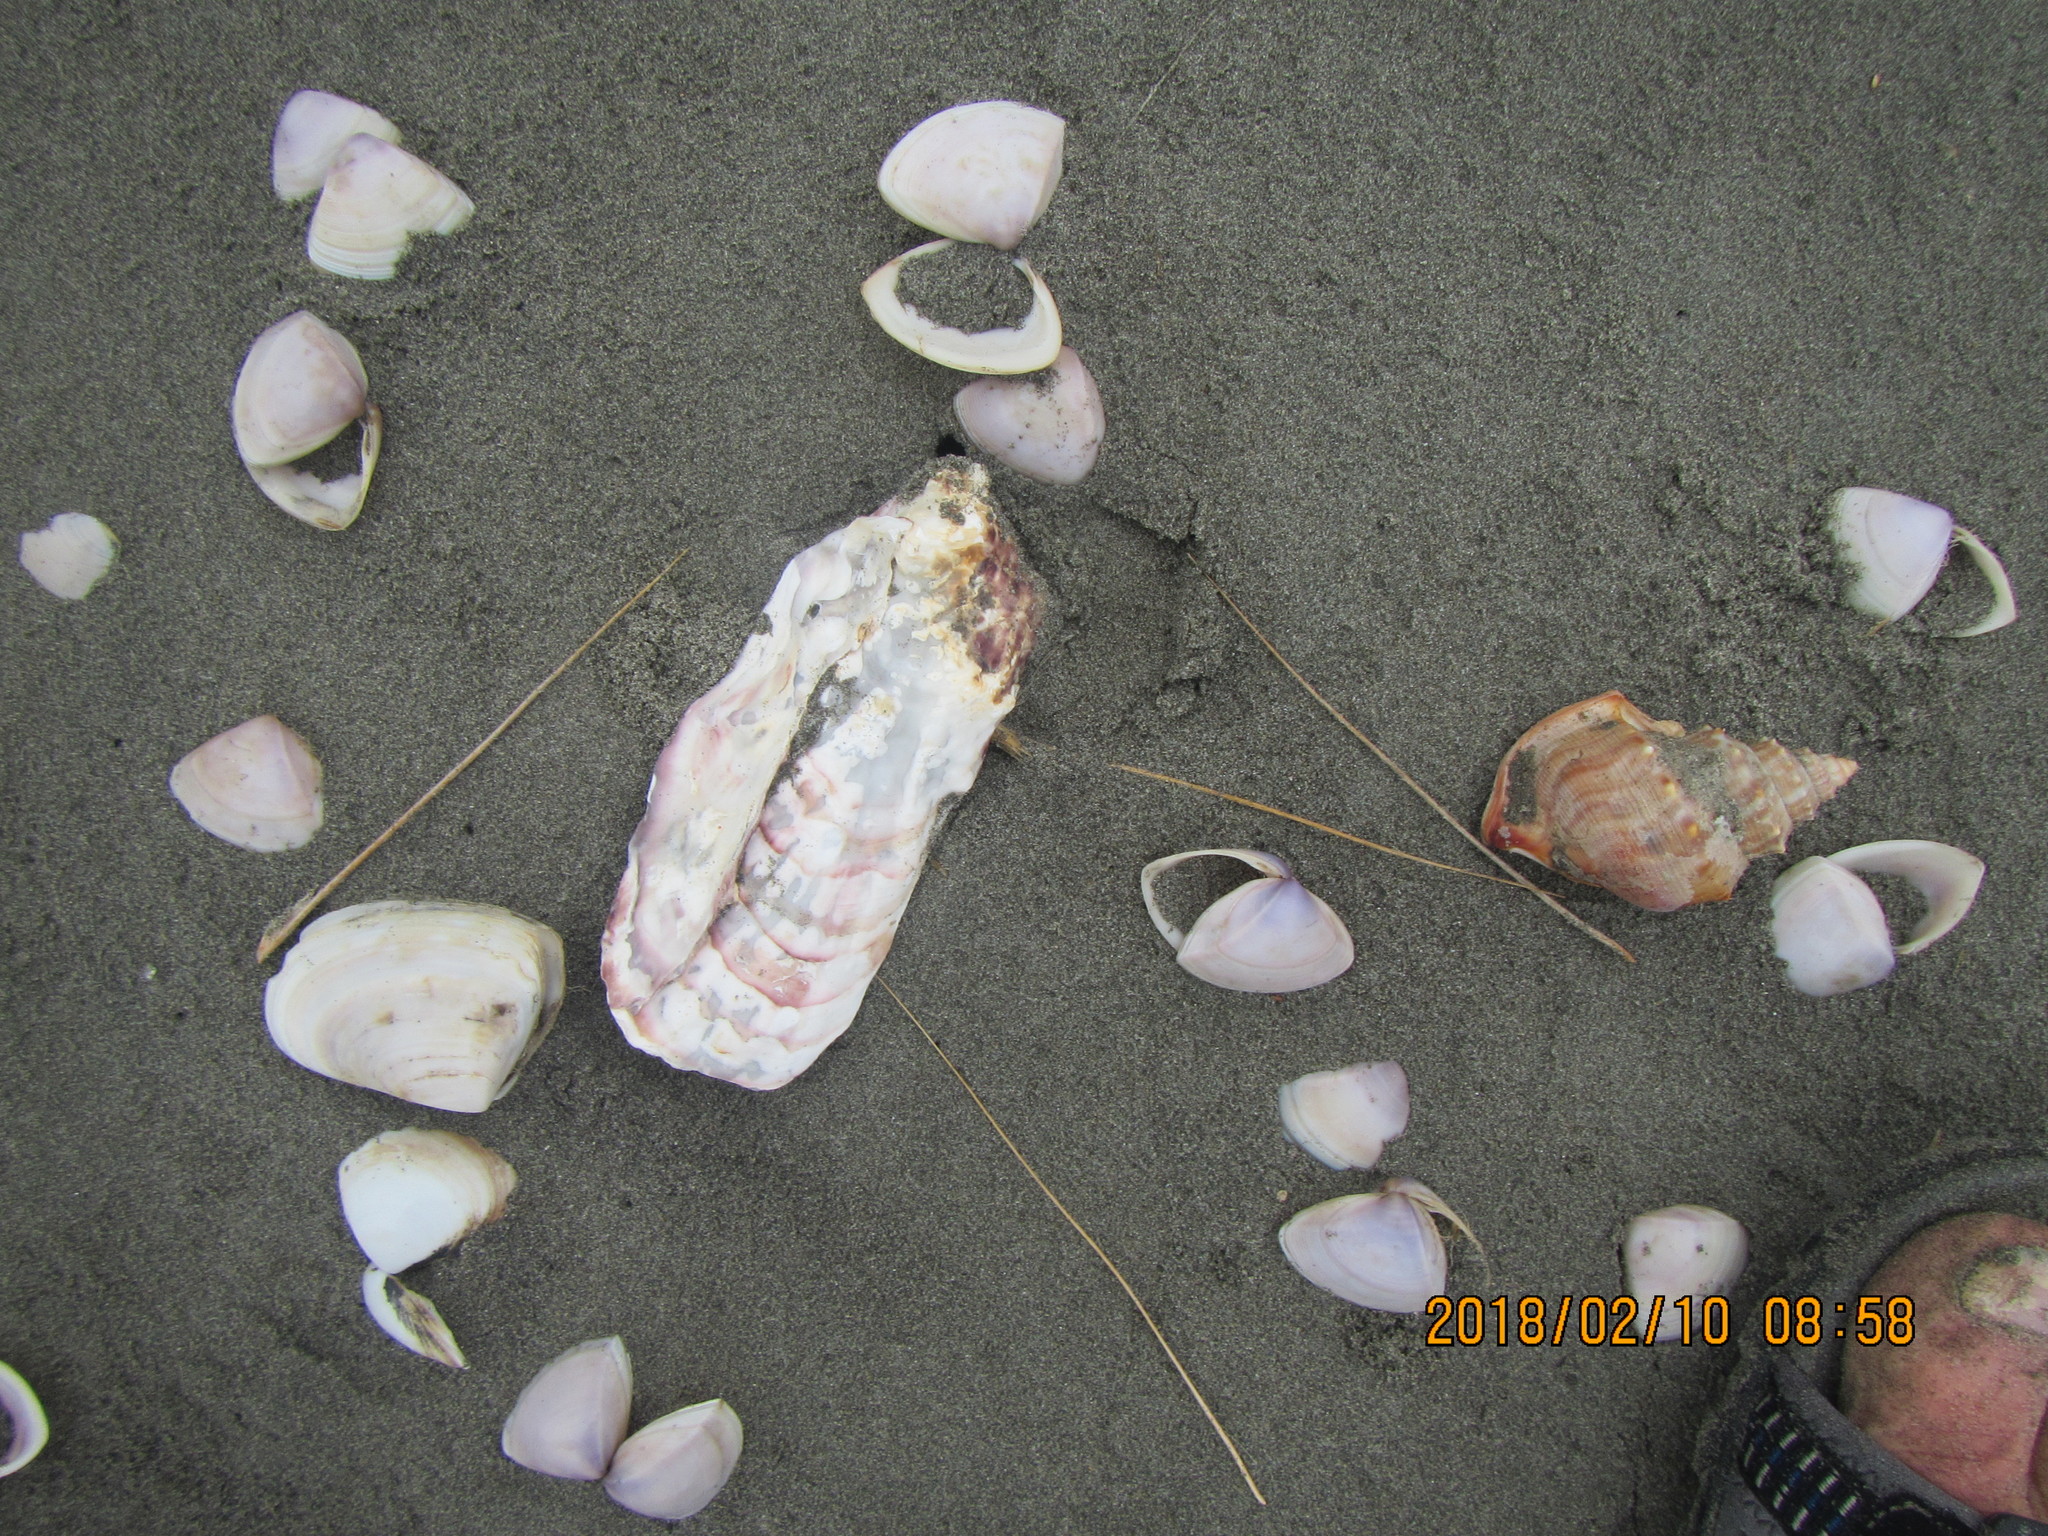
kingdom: Animalia
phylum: Mollusca
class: Bivalvia
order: Ostreida
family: Ostreidae
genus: Magallana
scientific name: Magallana gigas
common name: Pacific oyster
